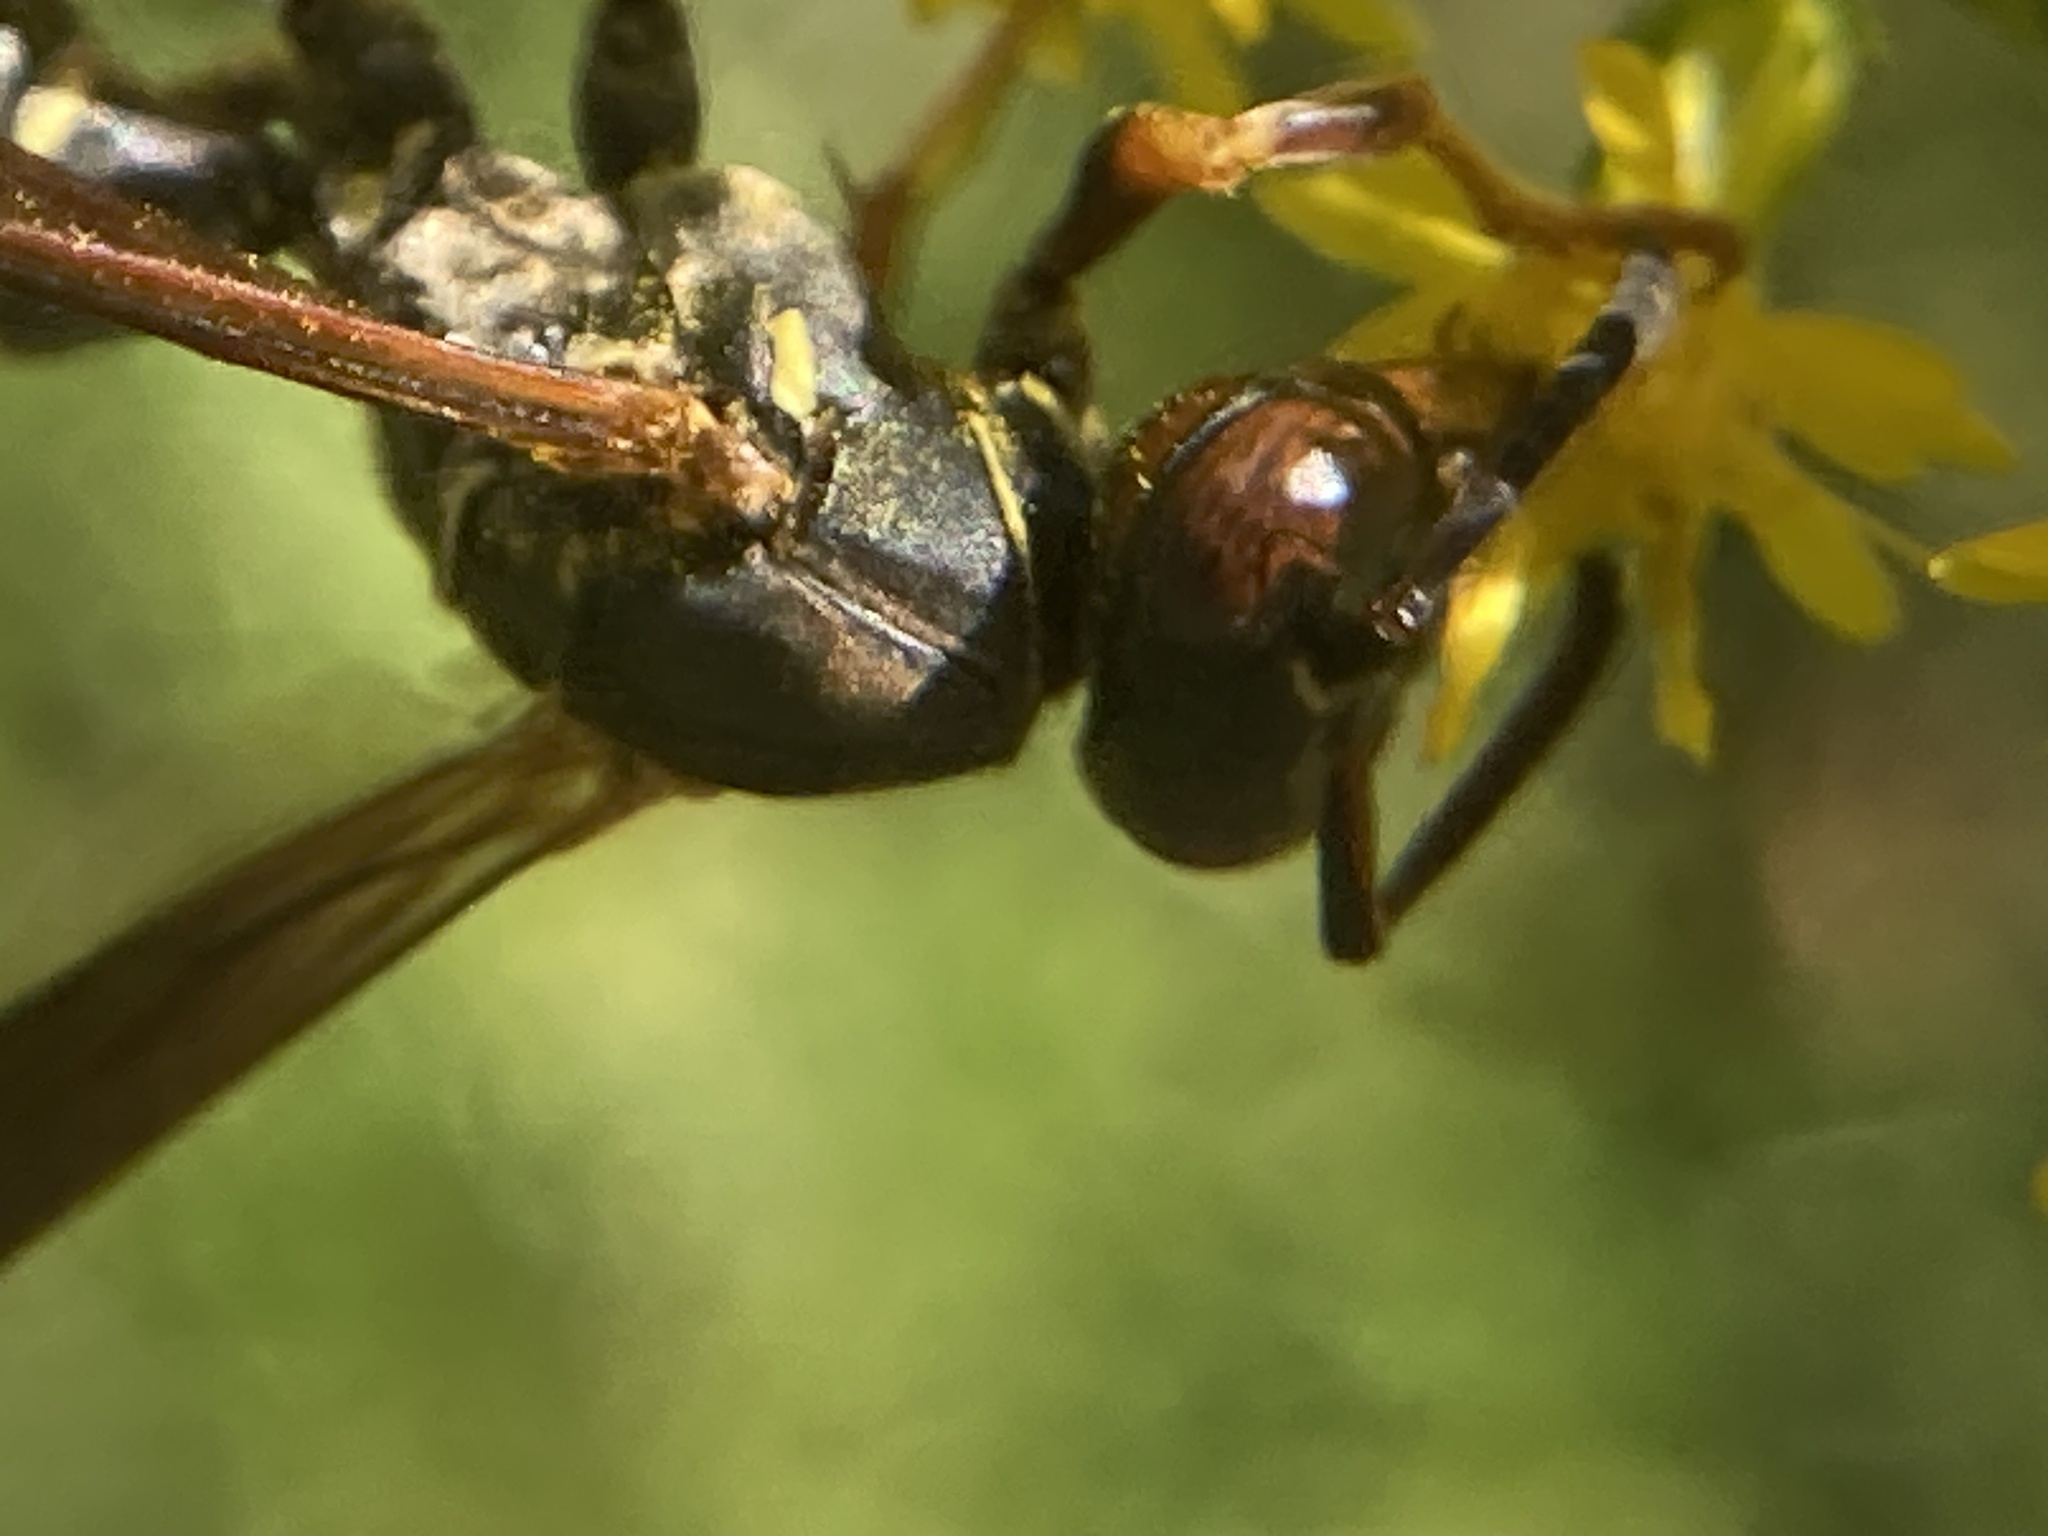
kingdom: Animalia
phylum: Arthropoda
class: Insecta
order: Hymenoptera
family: Eumenidae
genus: Polistes
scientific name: Polistes fuscatus
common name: Dark paper wasp
